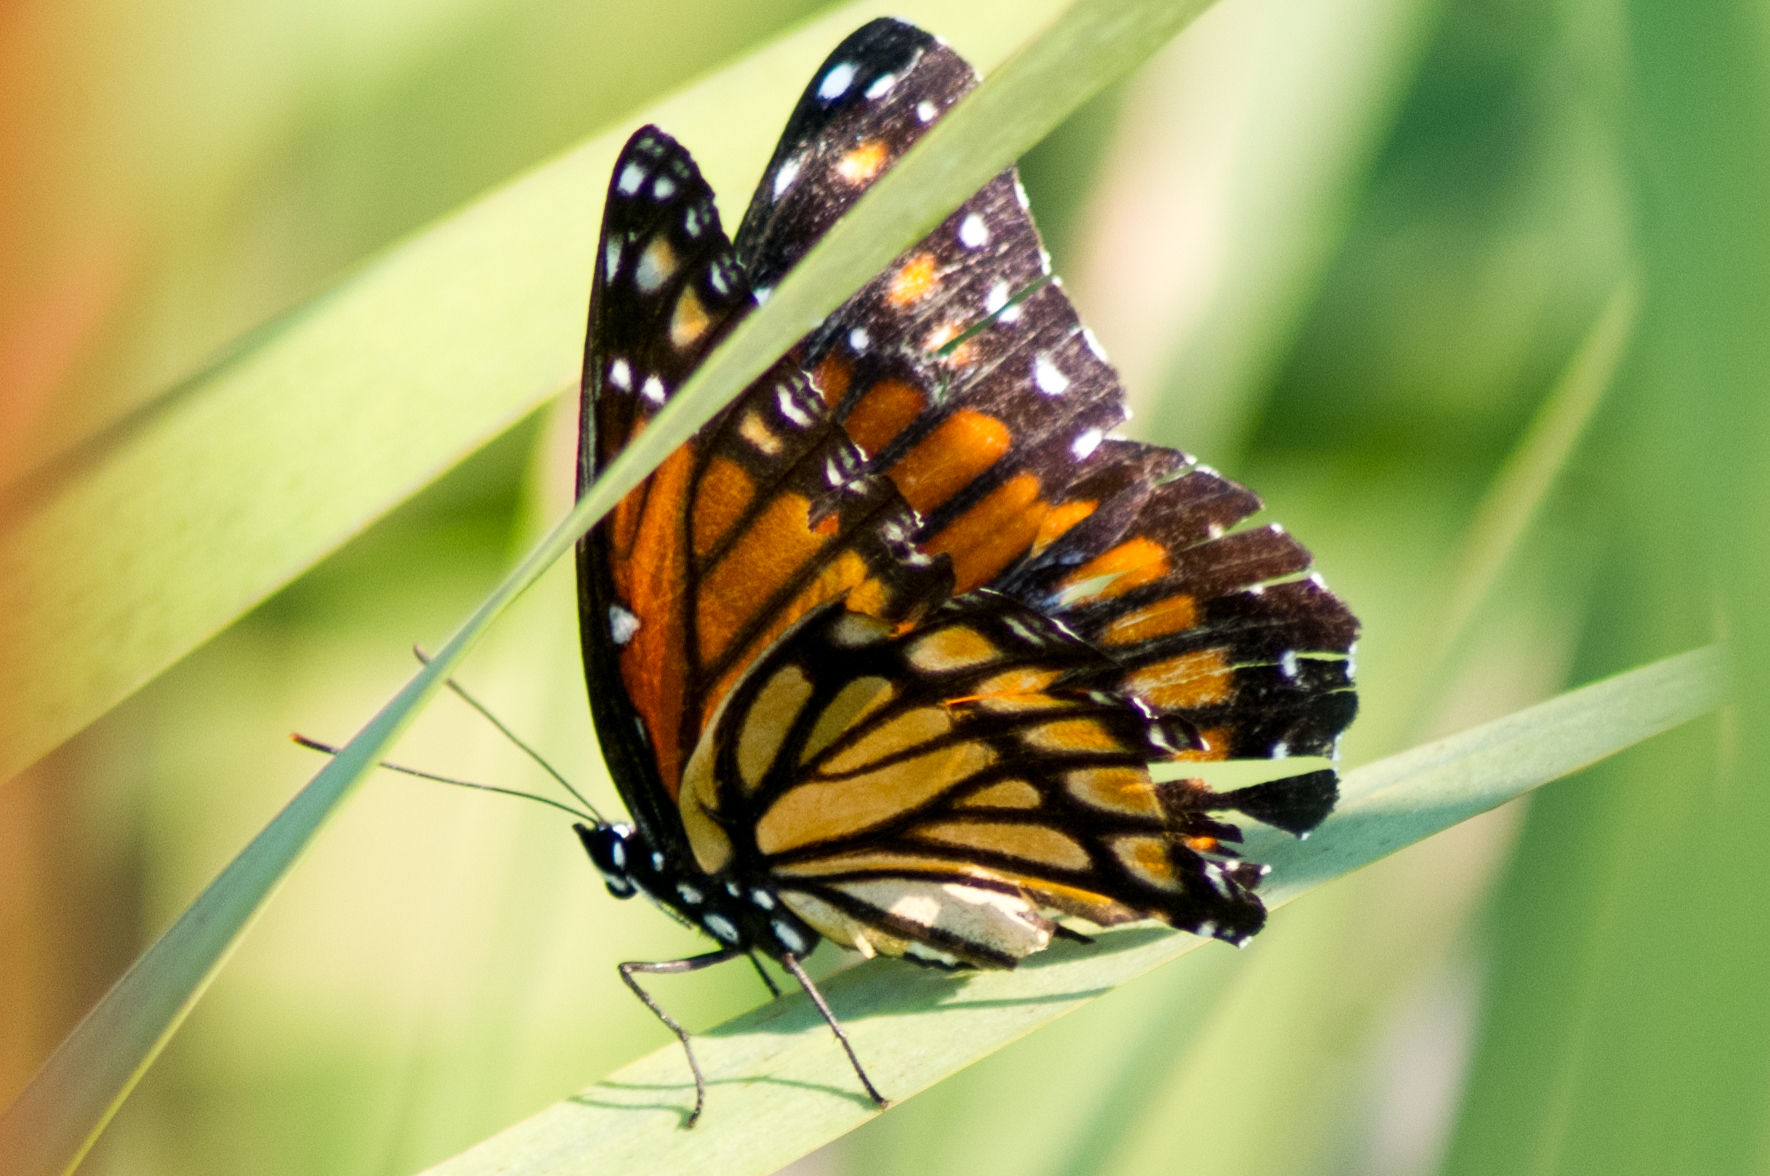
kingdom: Animalia
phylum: Arthropoda
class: Insecta
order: Lepidoptera
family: Nymphalidae
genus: Limenitis
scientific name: Limenitis archippus
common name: Viceroy
